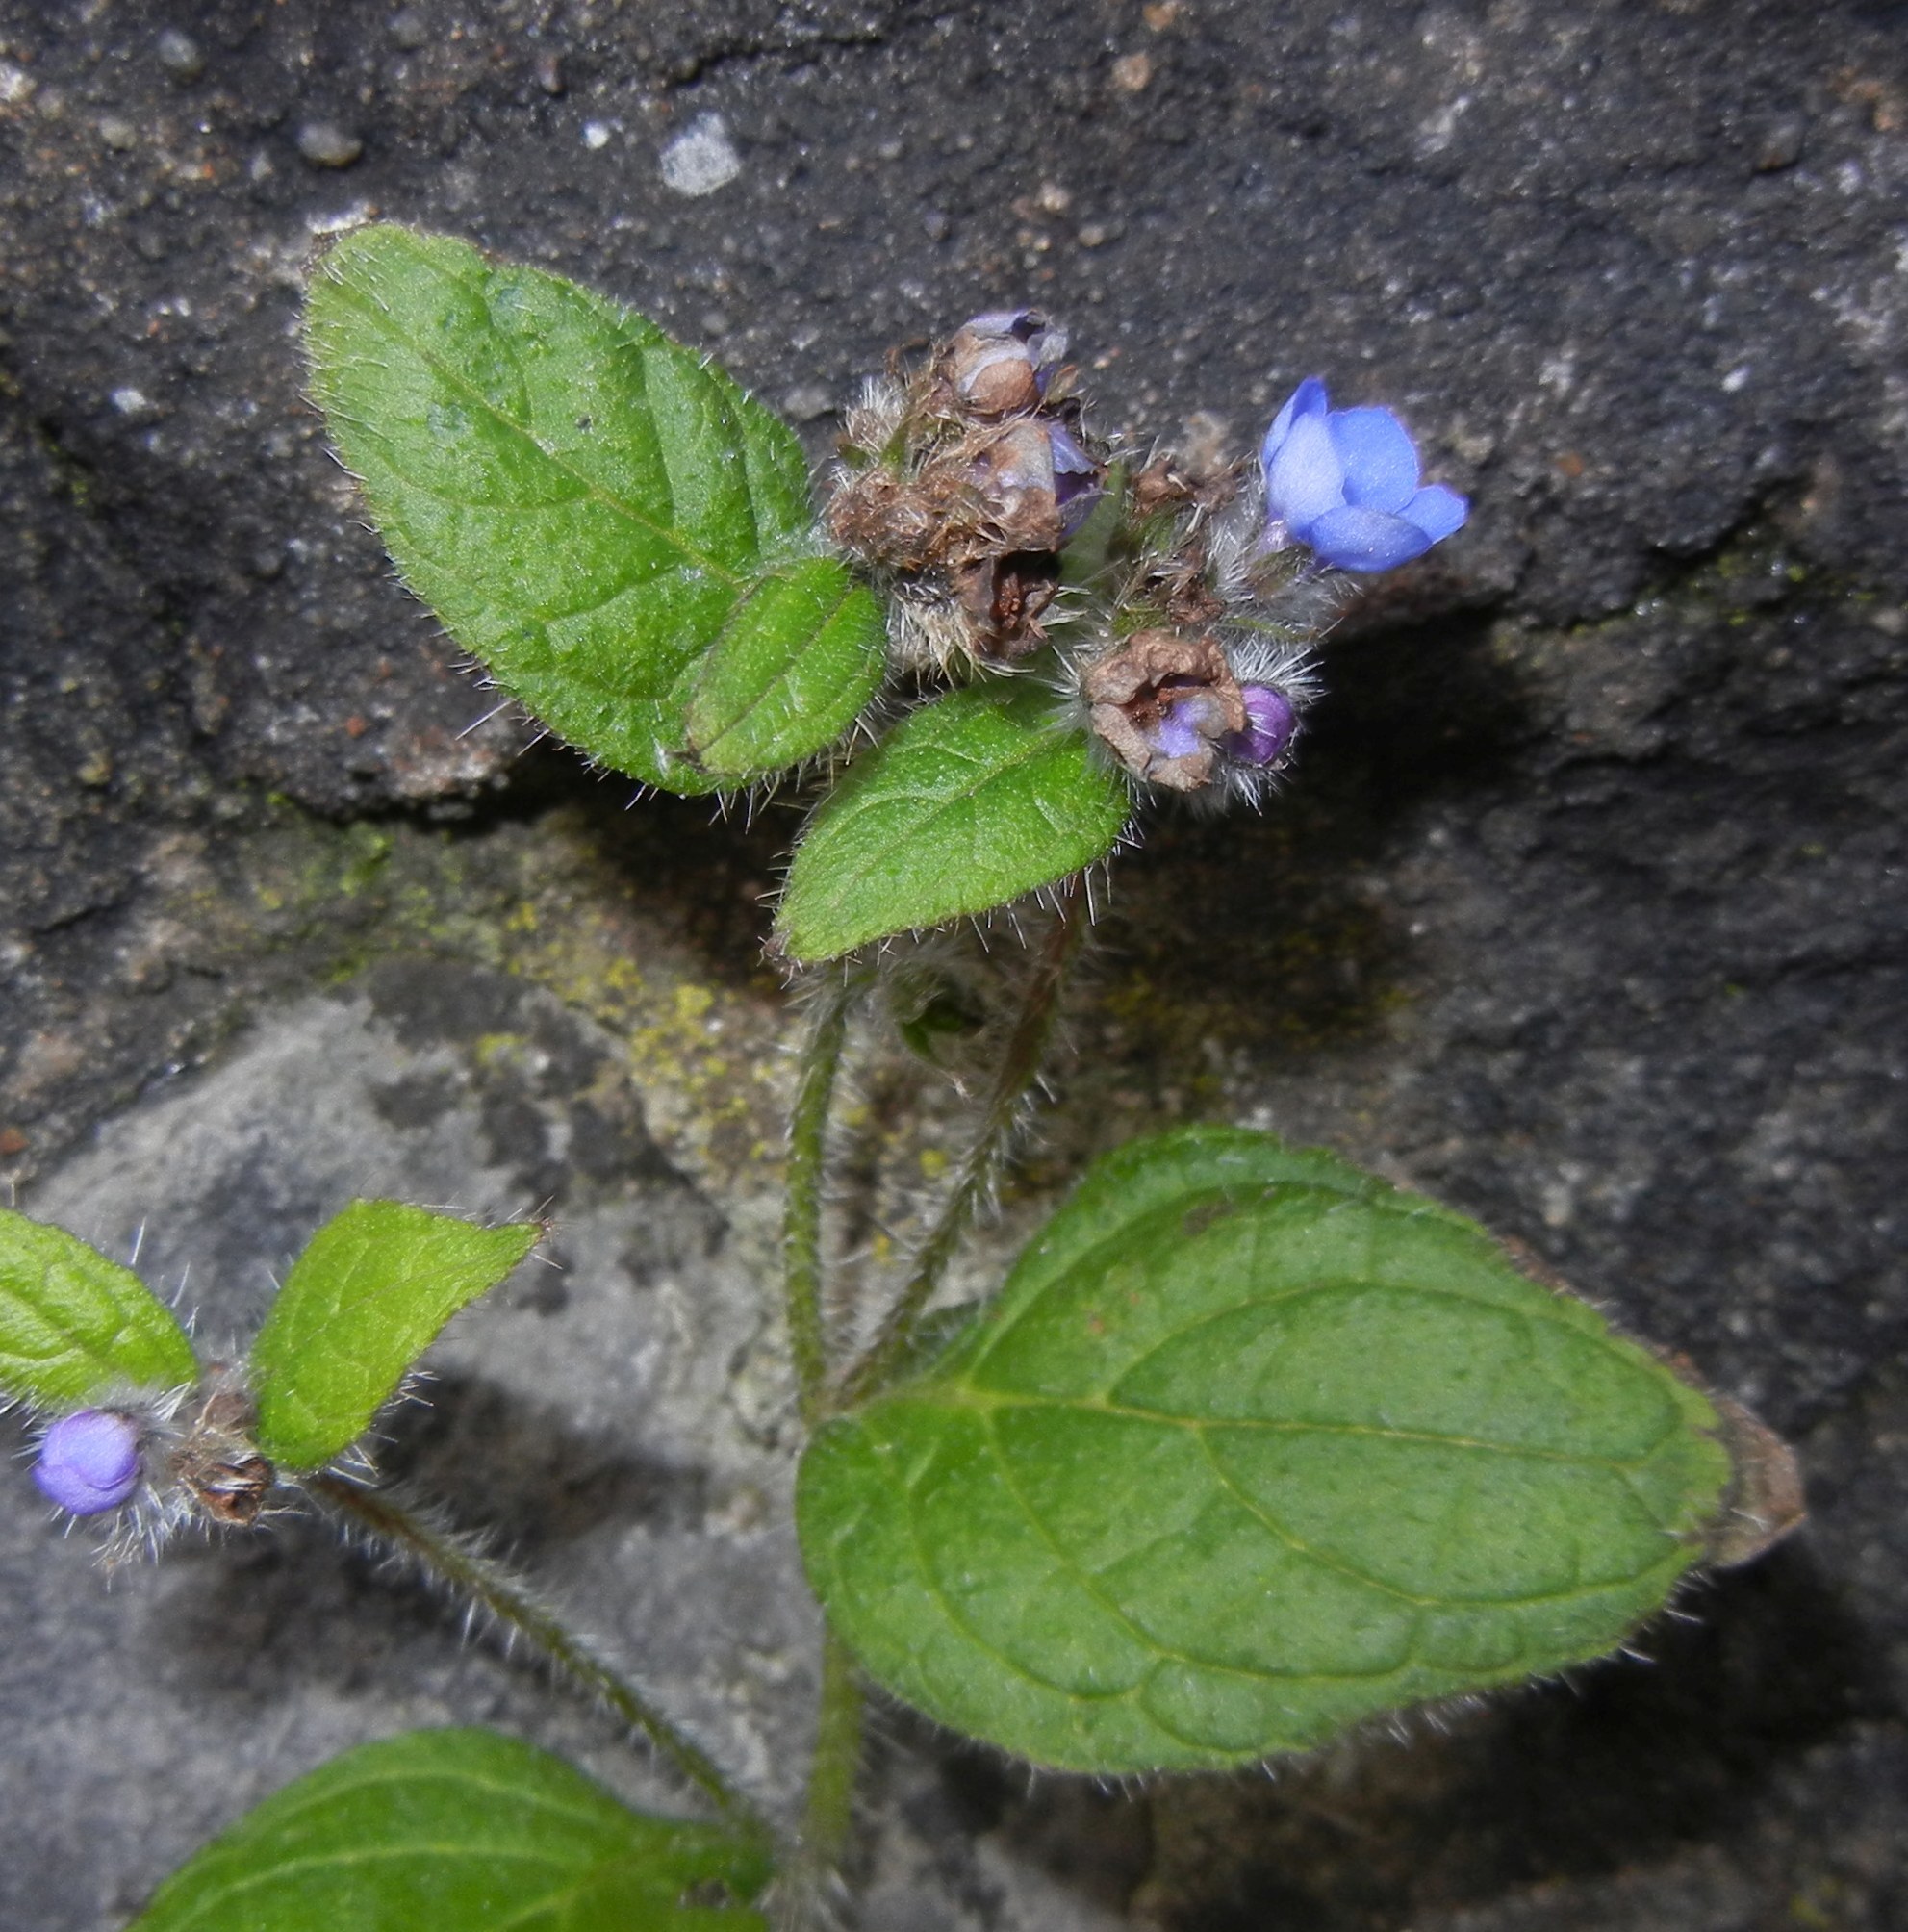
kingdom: Plantae
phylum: Tracheophyta
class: Magnoliopsida
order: Boraginales
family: Boraginaceae
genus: Pentaglottis
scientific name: Pentaglottis sempervirens
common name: Green alkanet
